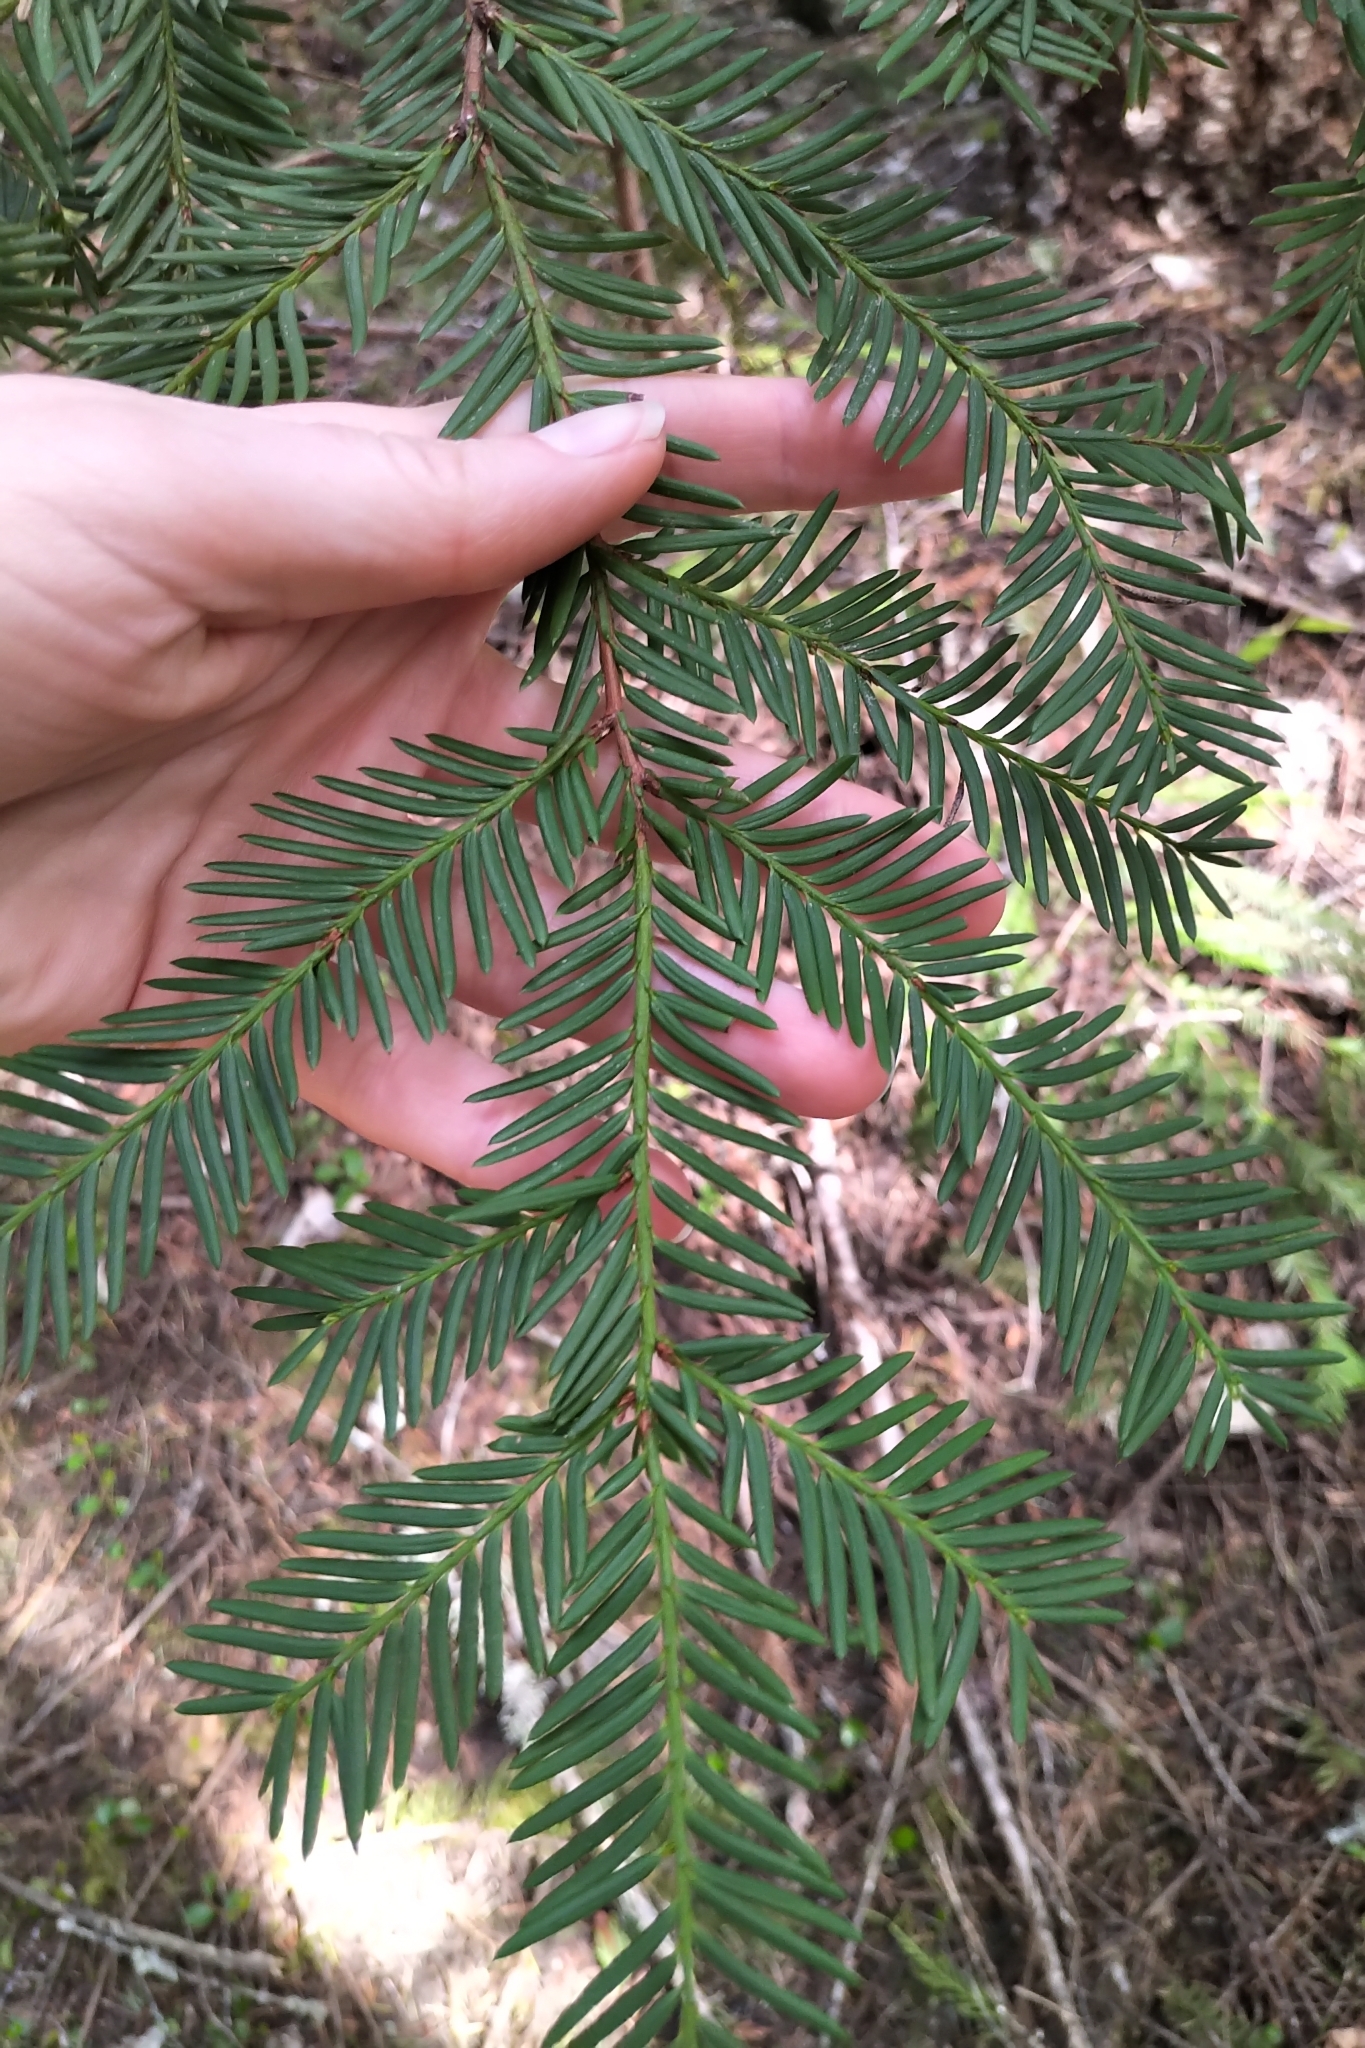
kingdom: Plantae
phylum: Tracheophyta
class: Pinopsida
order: Pinales
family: Taxaceae
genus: Taxus
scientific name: Taxus brevifolia
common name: Pacific yew
